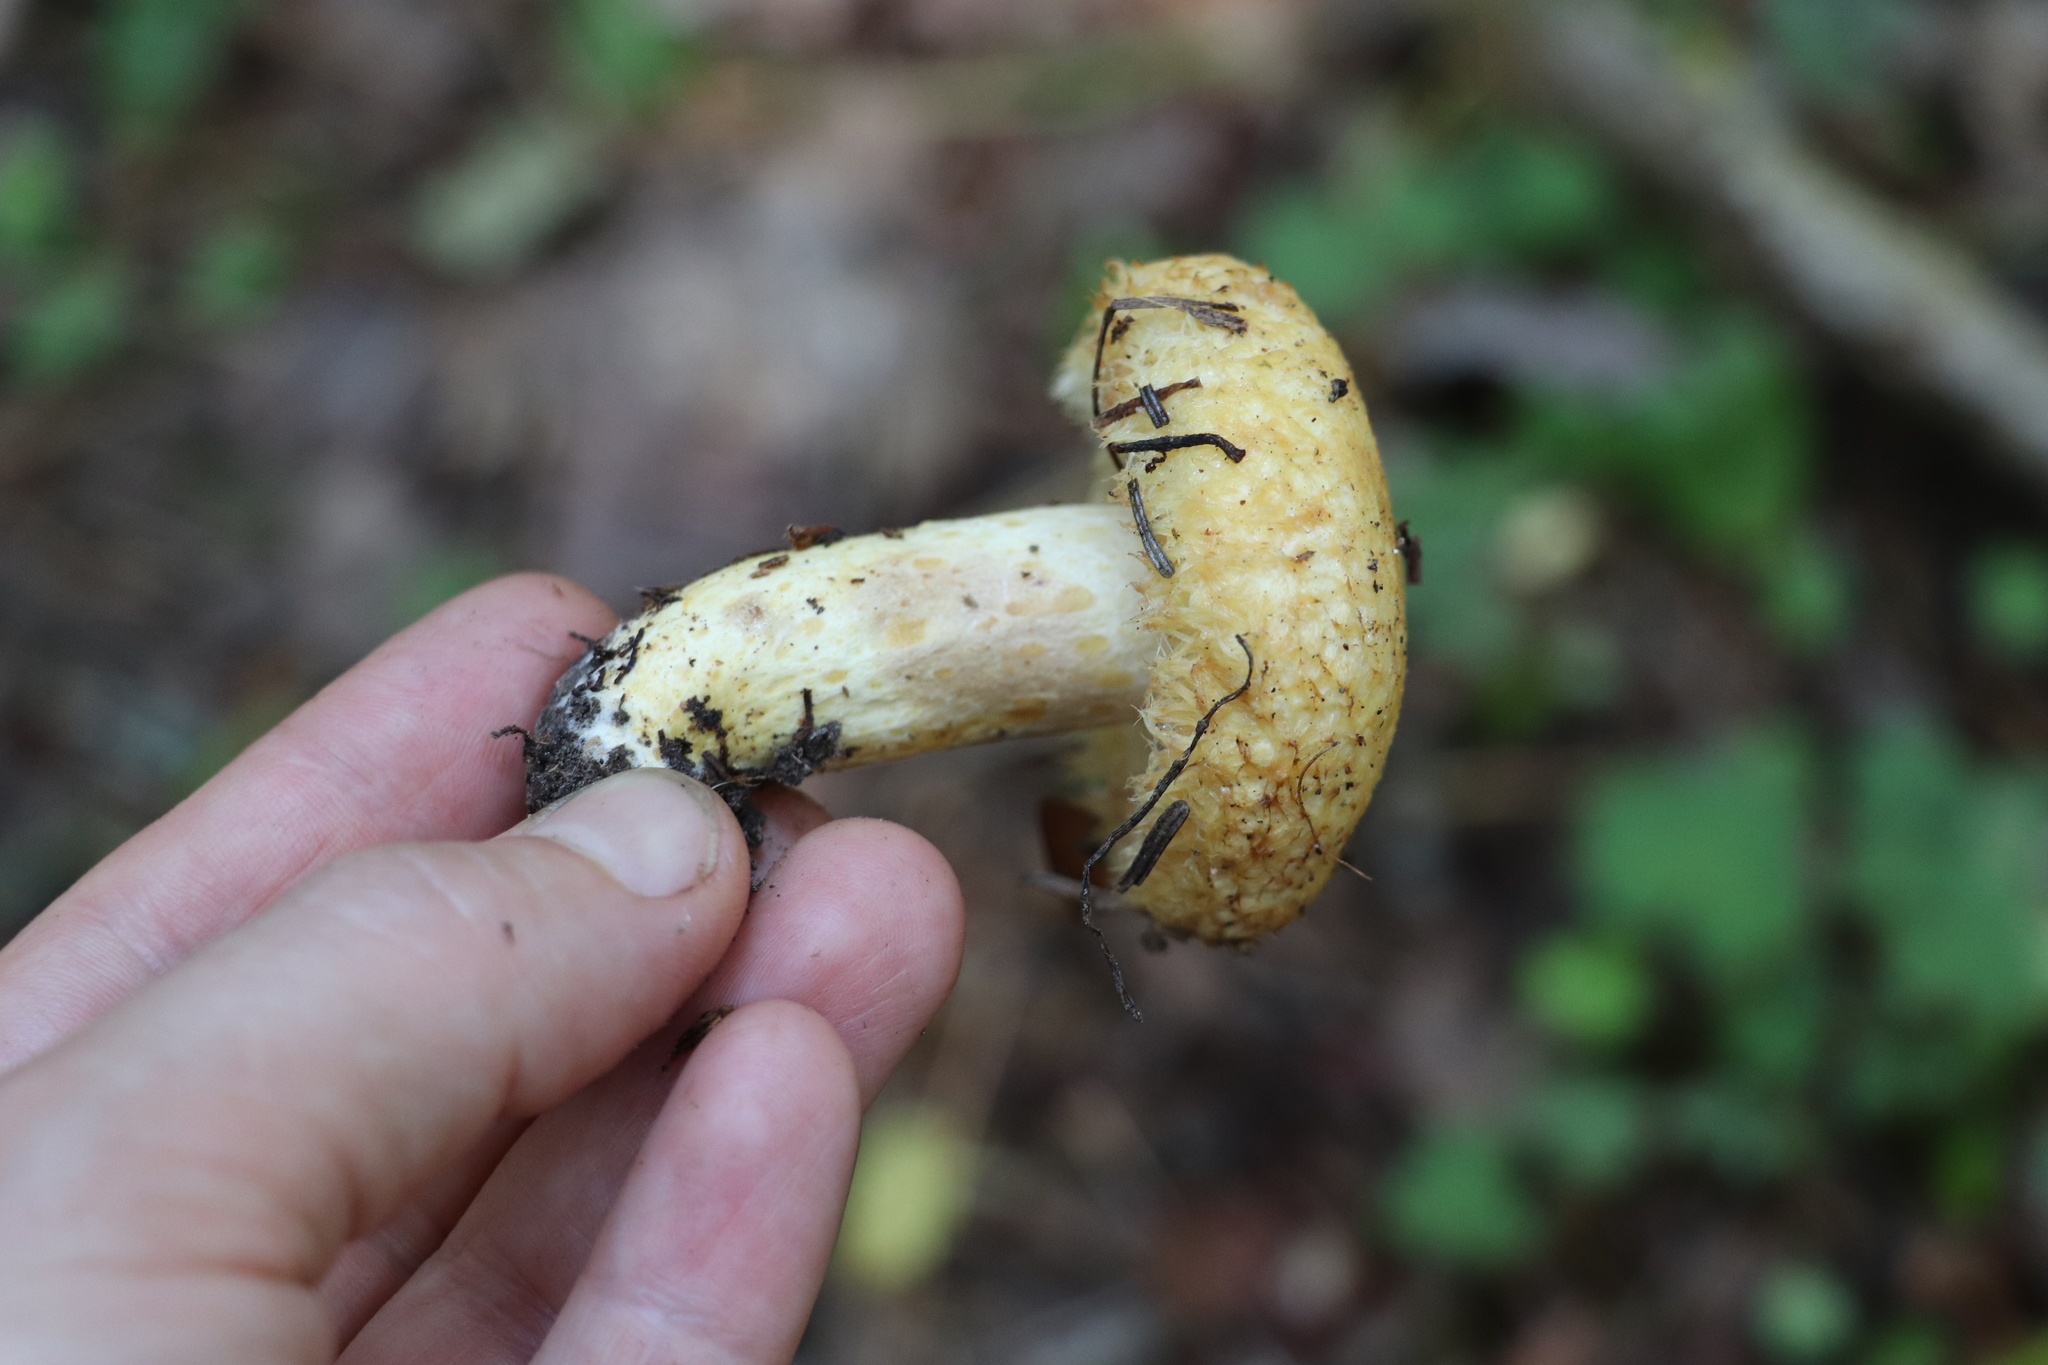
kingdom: Fungi
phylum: Basidiomycota
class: Agaricomycetes
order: Russulales
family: Russulaceae
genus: Lactarius
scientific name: Lactarius repraesentaneus
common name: Yellow bearded milkcap
